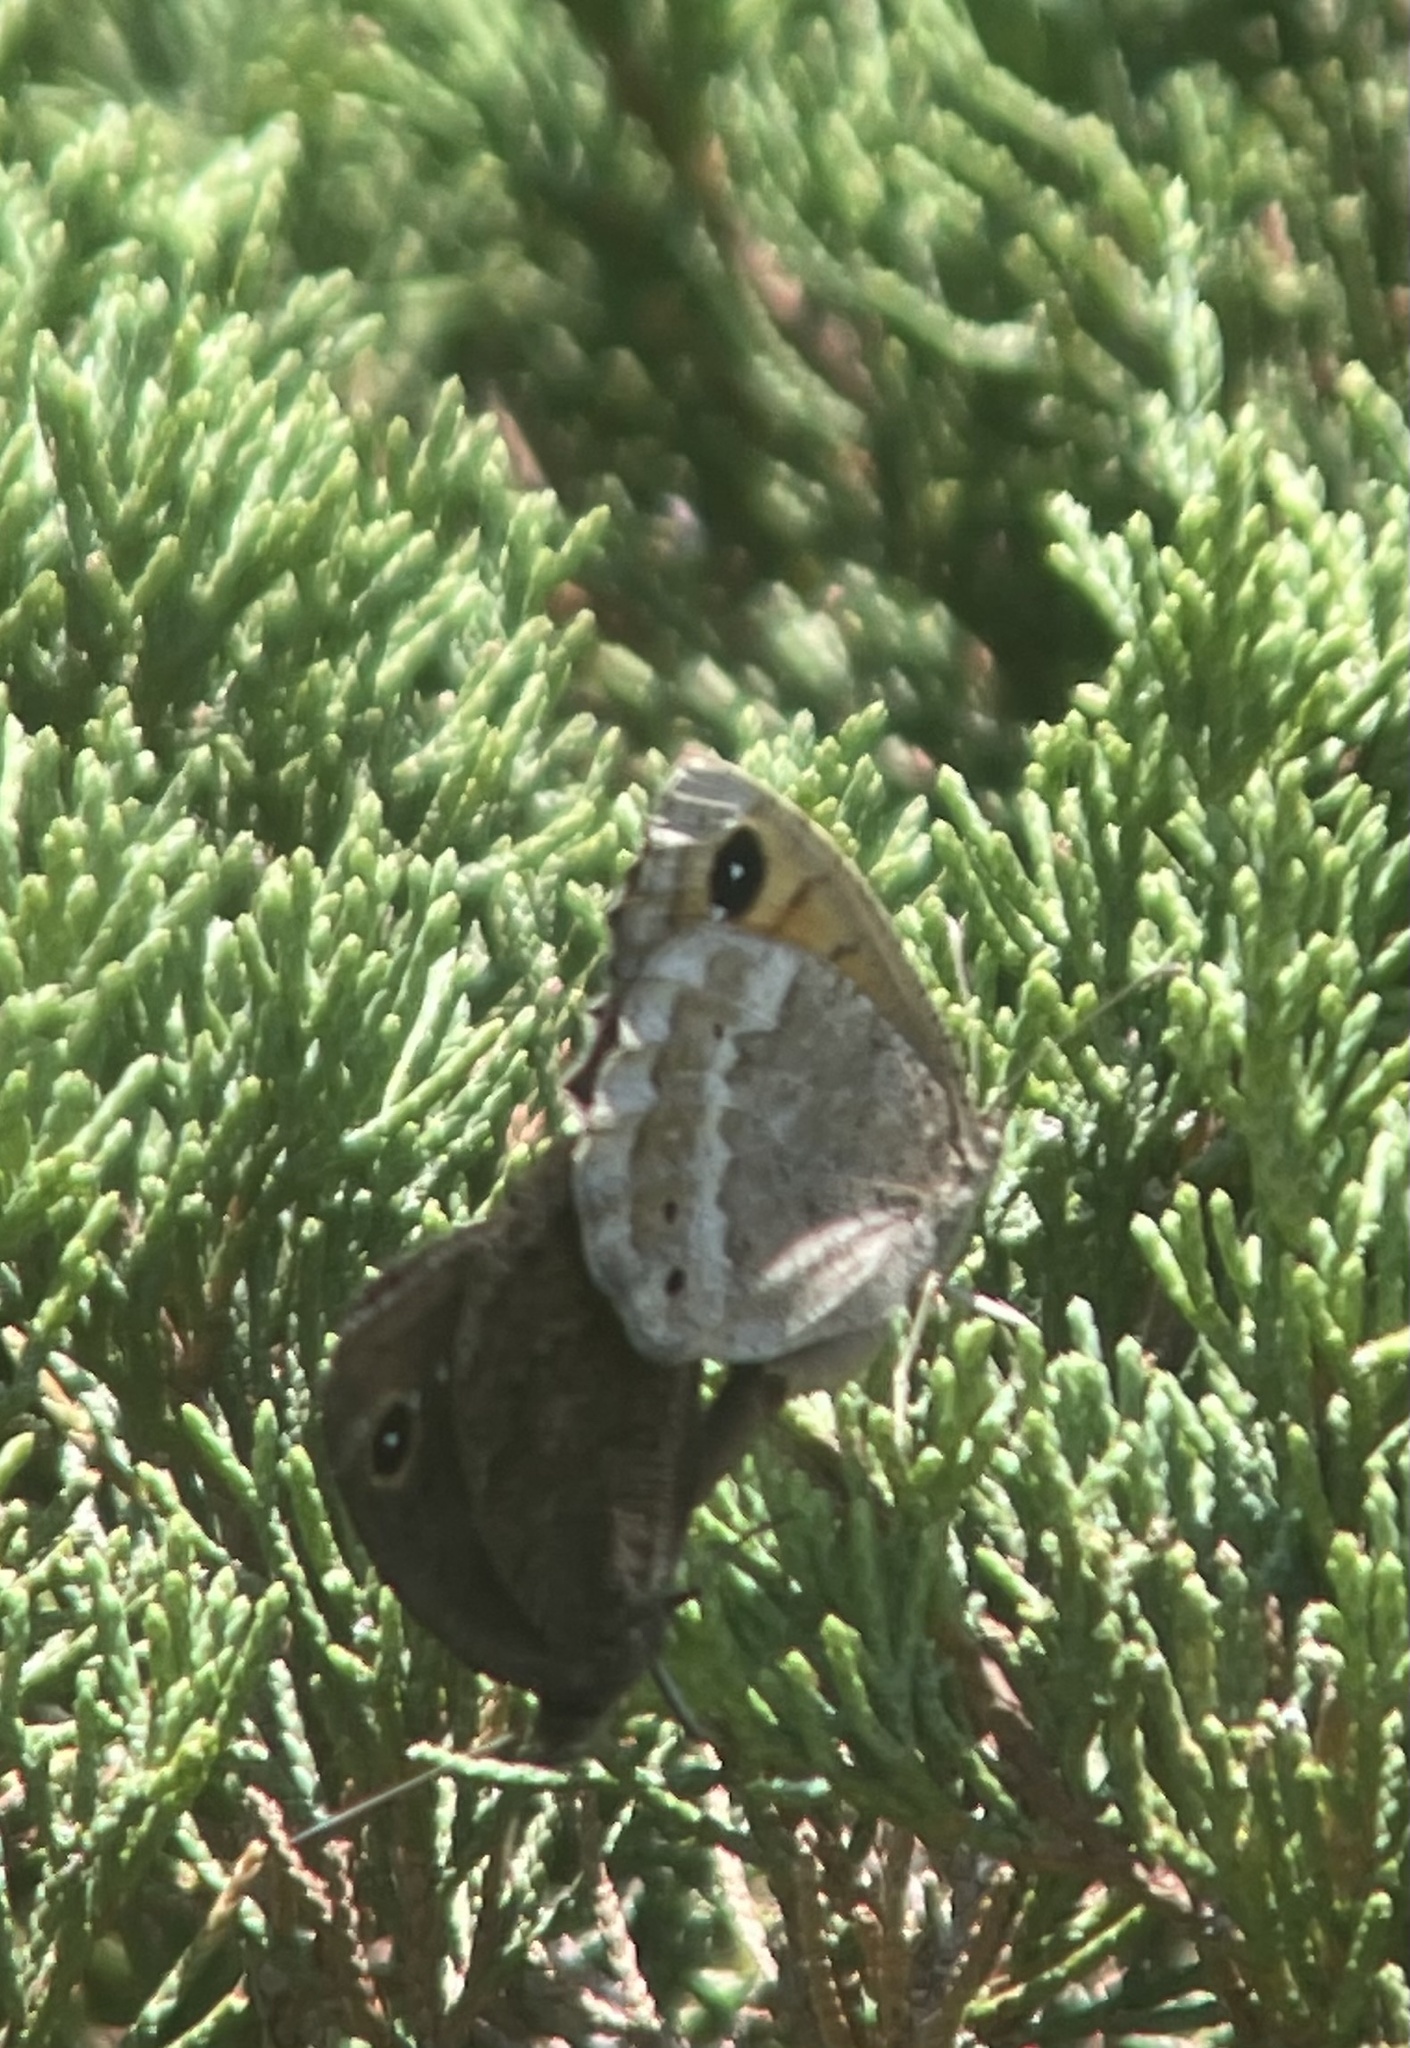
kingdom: Animalia
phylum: Arthropoda
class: Insecta
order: Lepidoptera
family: Nymphalidae
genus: Satyrus
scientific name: Satyrus ferula
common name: Great sooty satyr
